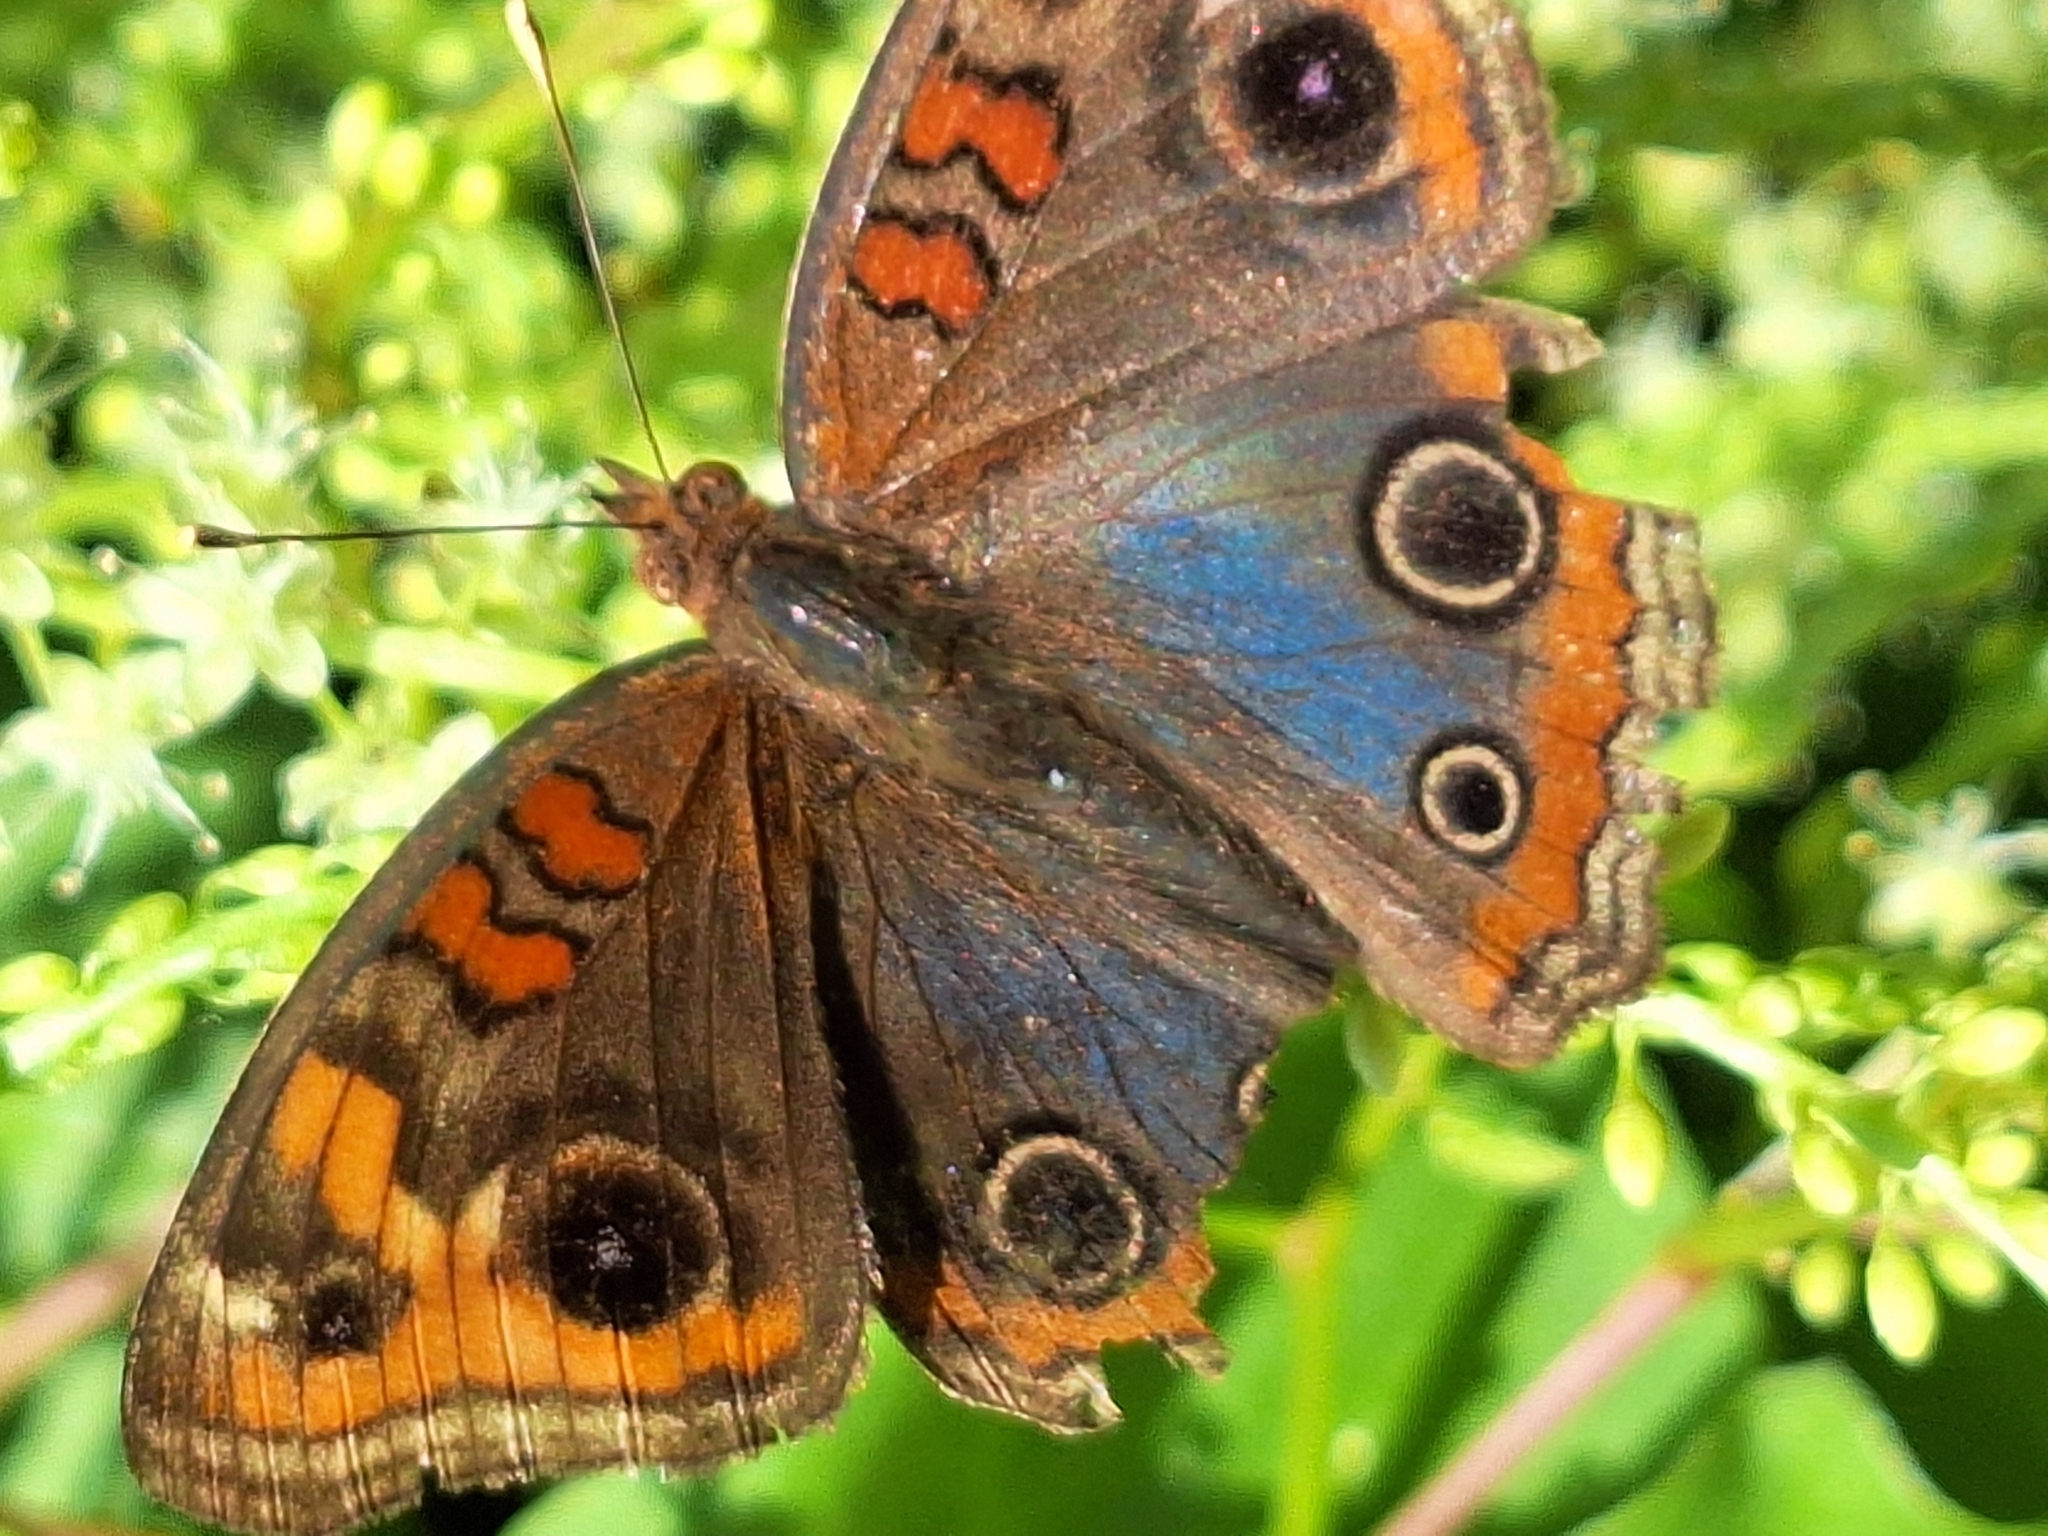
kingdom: Animalia
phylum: Arthropoda
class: Insecta
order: Lepidoptera
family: Nymphalidae
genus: Junonia
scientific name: Junonia lavinia
